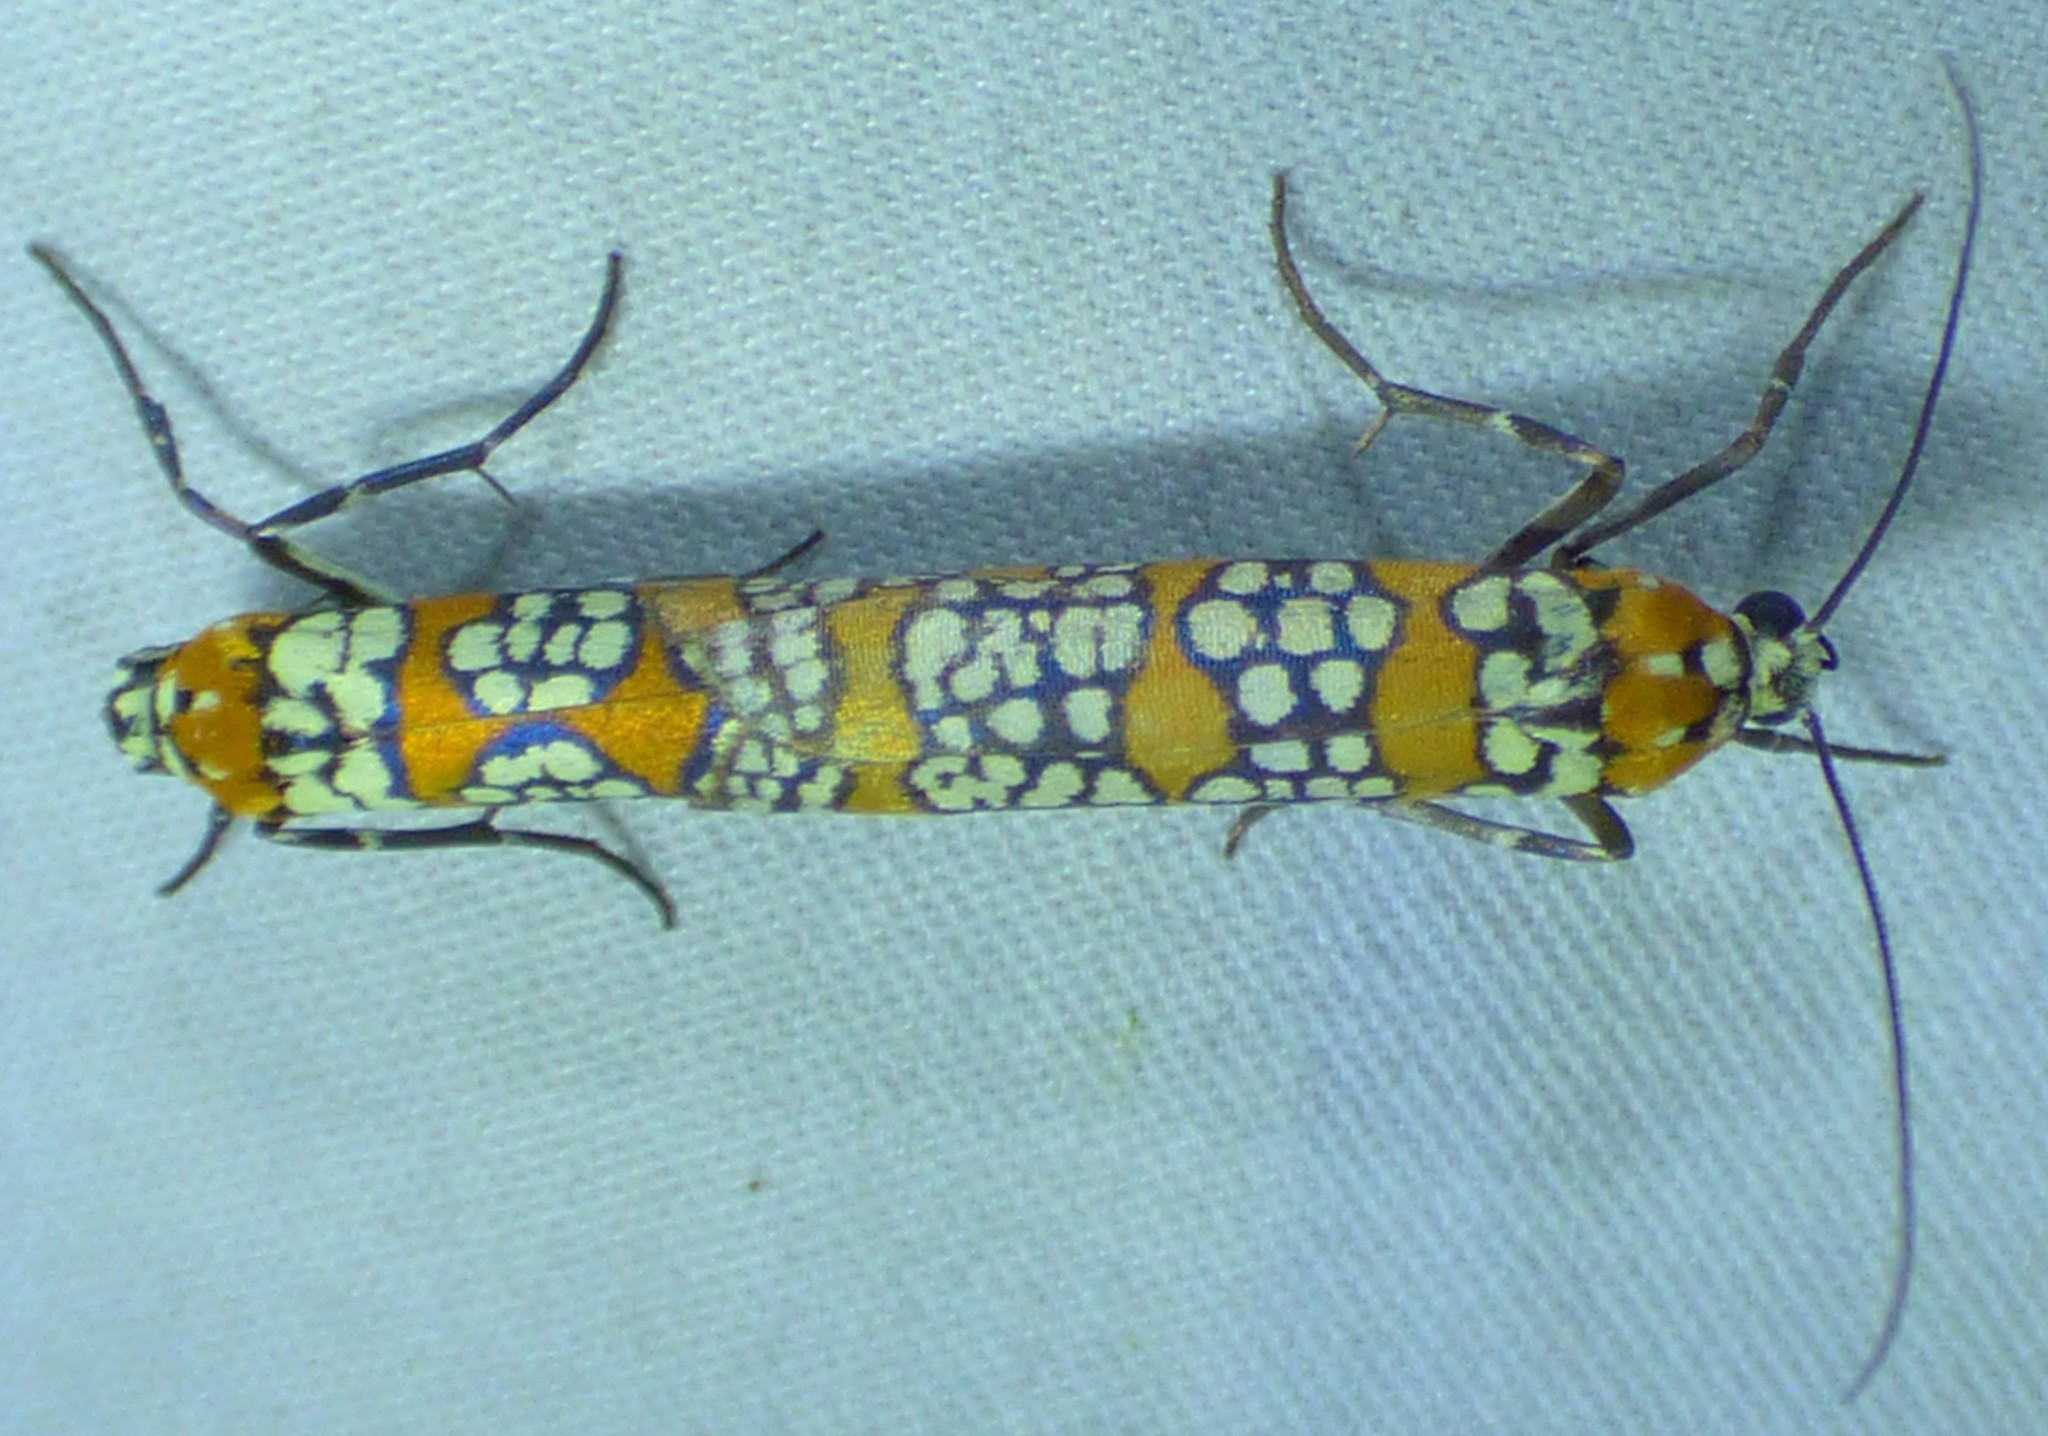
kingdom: Animalia
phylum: Arthropoda
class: Insecta
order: Lepidoptera
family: Attevidae
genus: Atteva
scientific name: Atteva punctella
